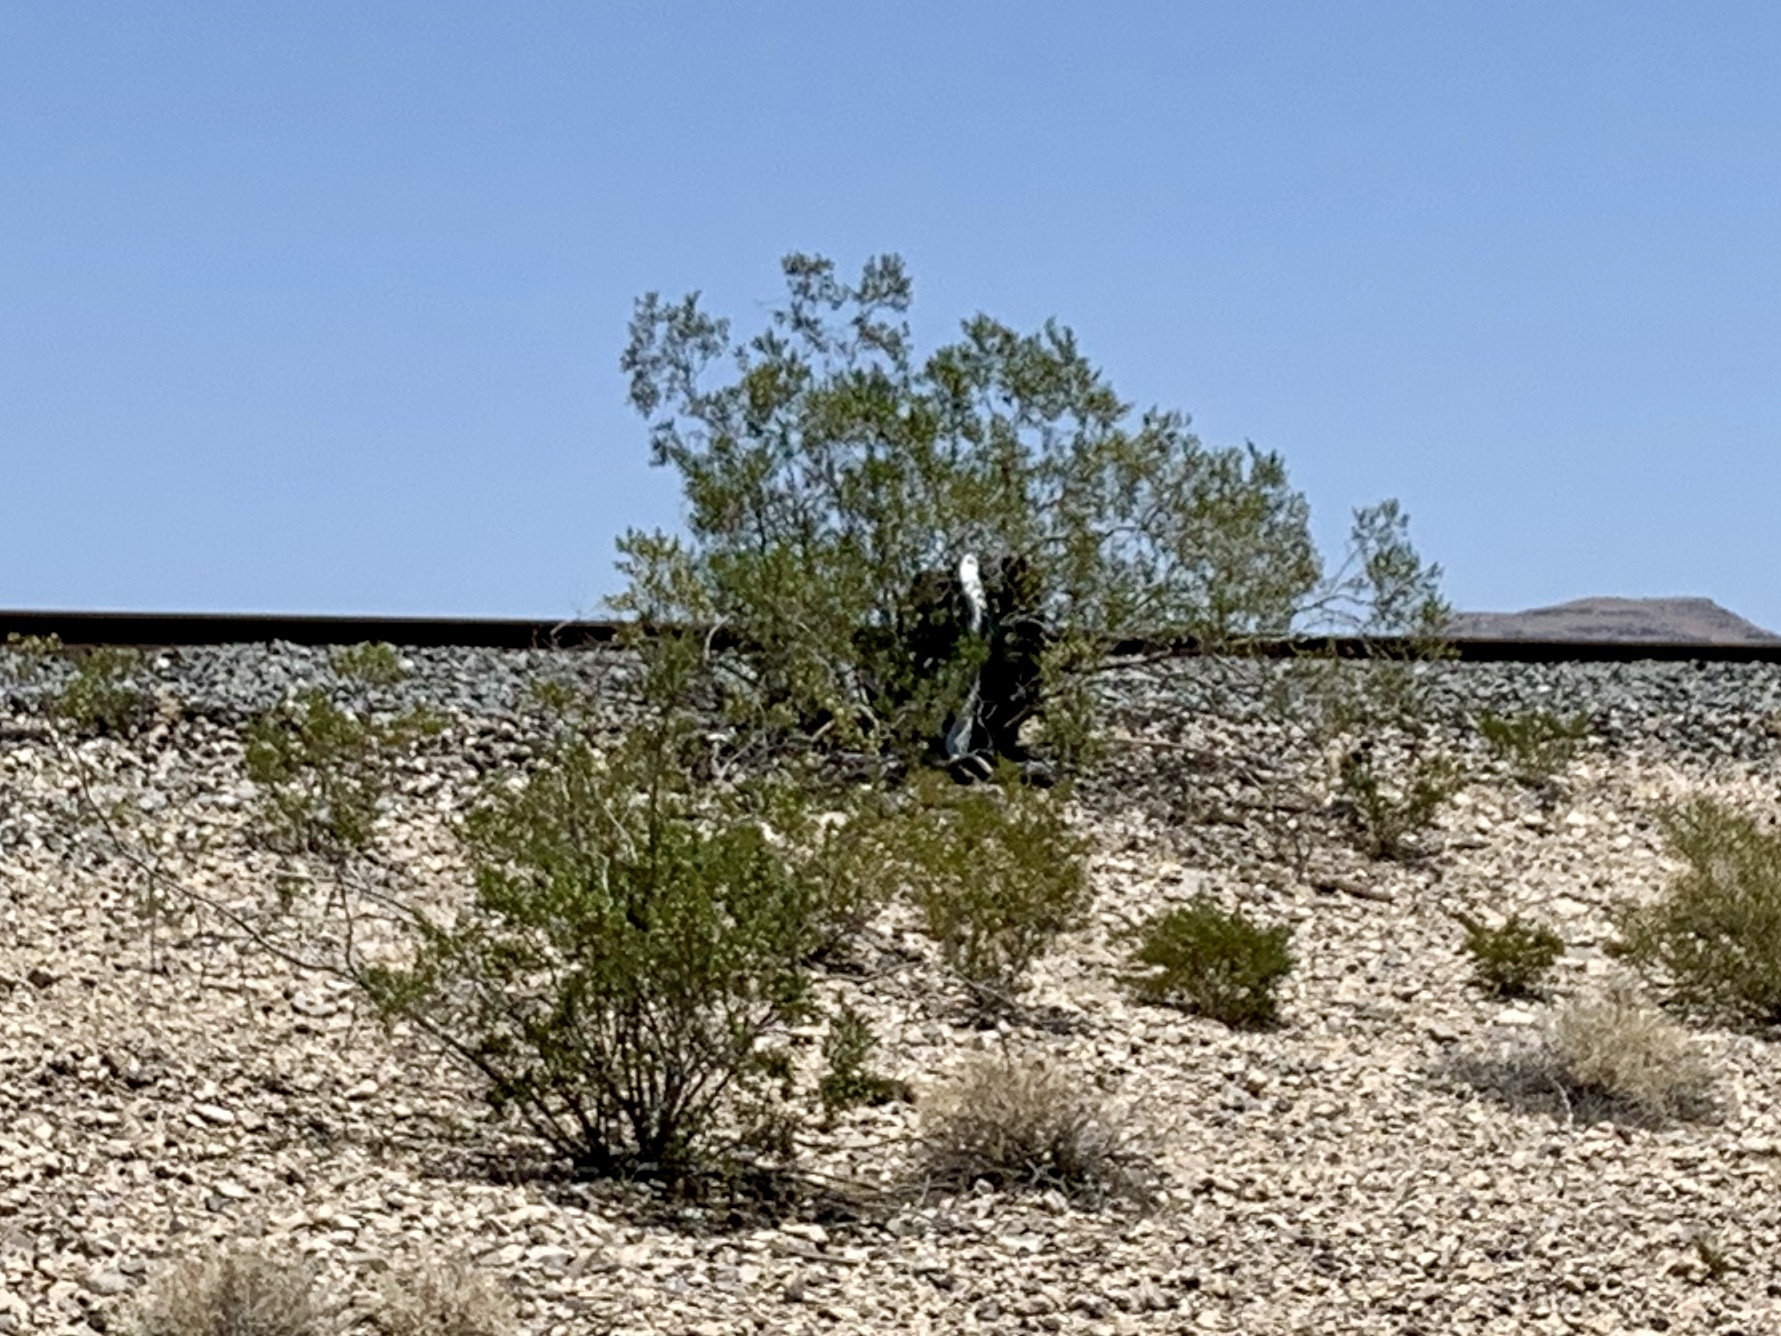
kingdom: Plantae
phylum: Tracheophyta
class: Magnoliopsida
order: Zygophyllales
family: Zygophyllaceae
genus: Larrea
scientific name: Larrea tridentata
